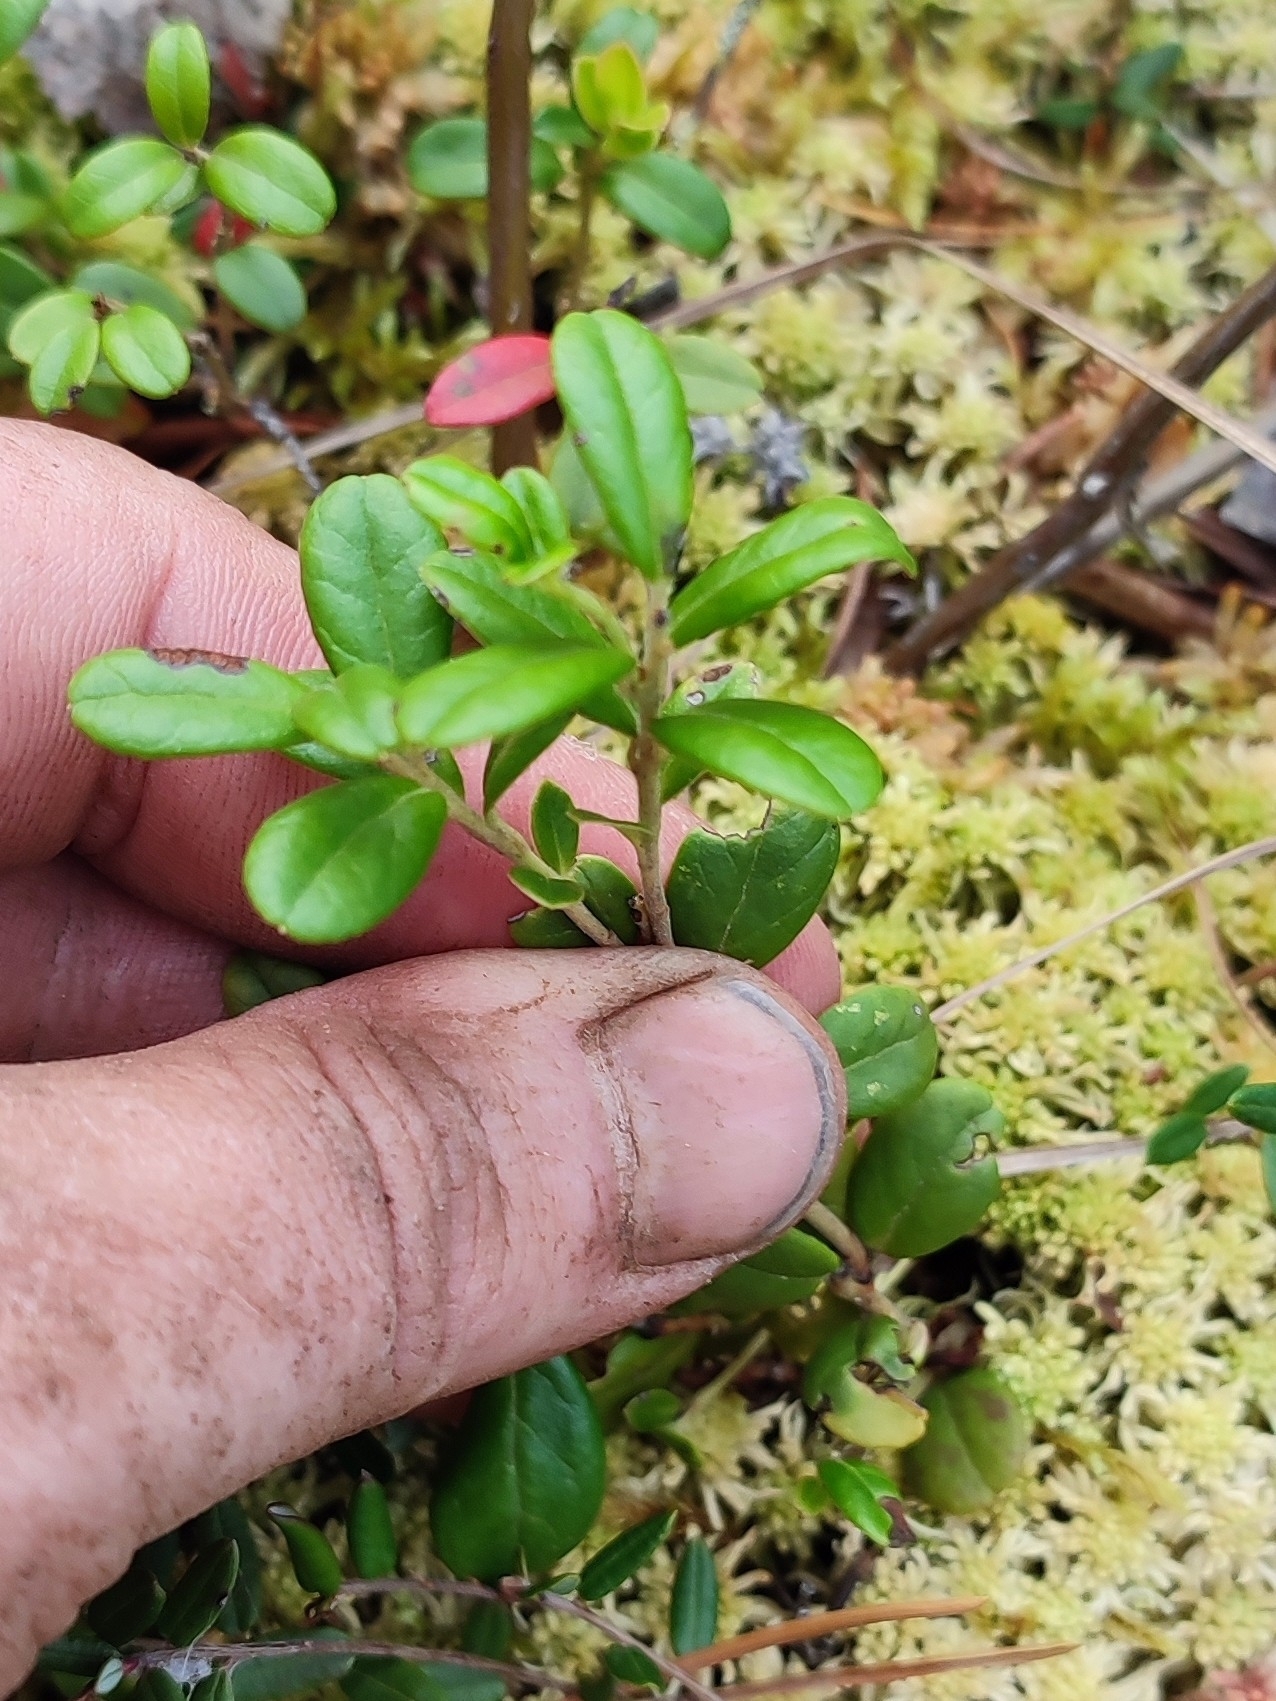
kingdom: Plantae
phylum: Tracheophyta
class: Magnoliopsida
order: Ericales
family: Ericaceae
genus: Vaccinium
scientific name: Vaccinium vitis-idaea
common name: Cowberry
